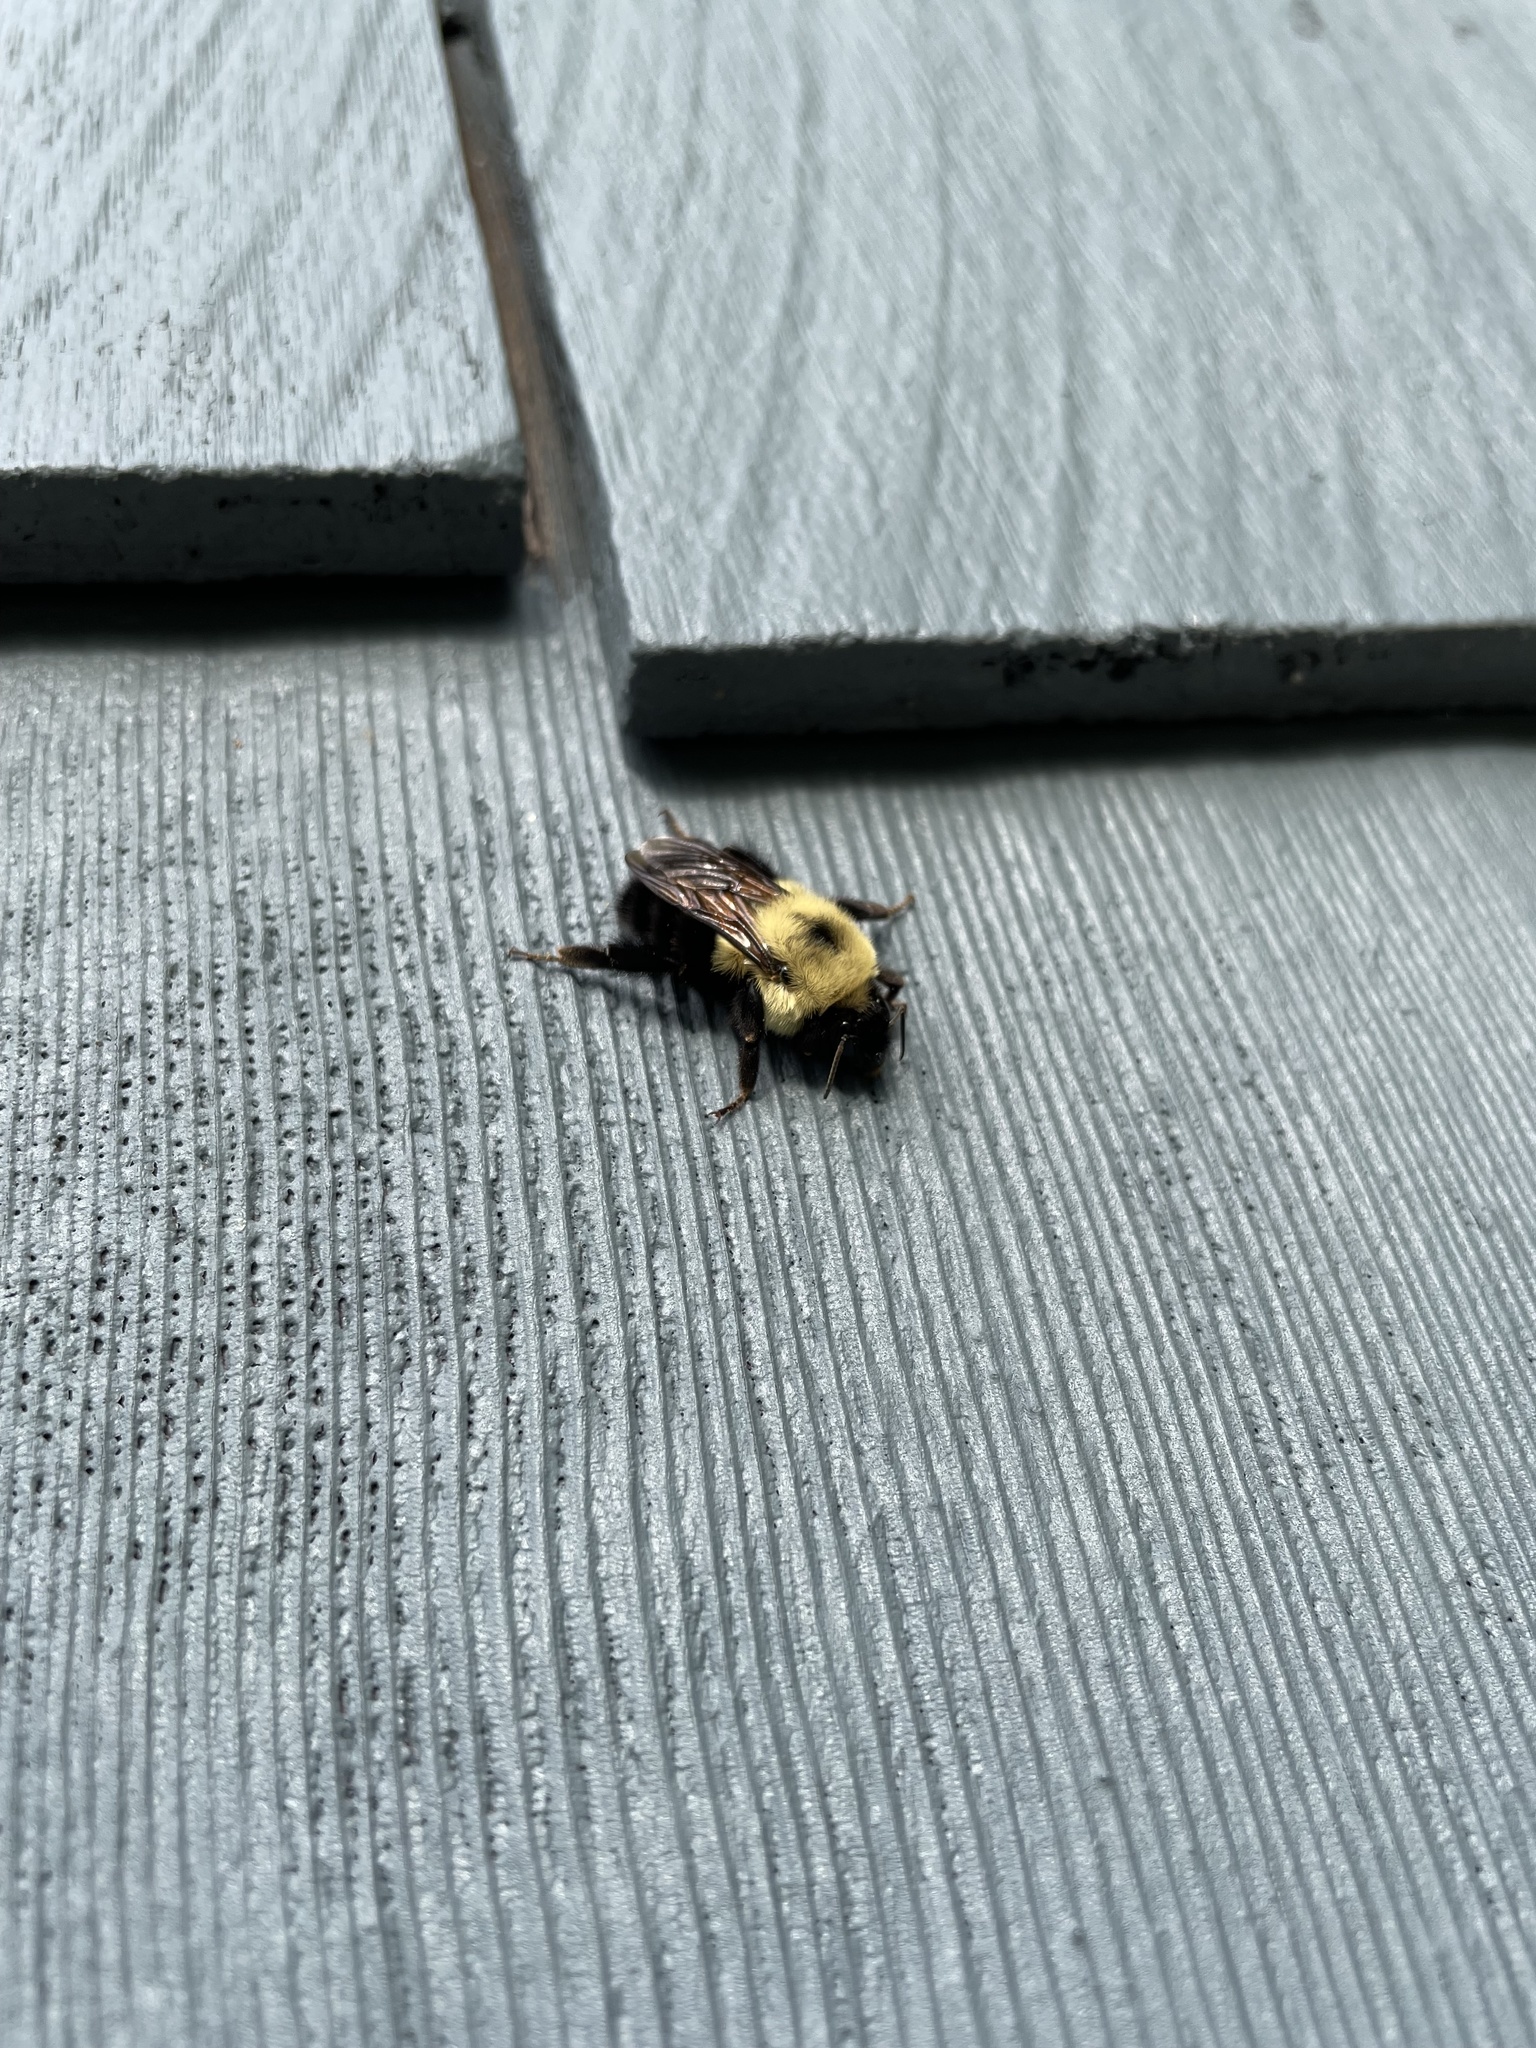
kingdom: Animalia
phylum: Arthropoda
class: Insecta
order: Hymenoptera
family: Apidae
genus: Bombus
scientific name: Bombus bimaculatus
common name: Two-spotted bumble bee
